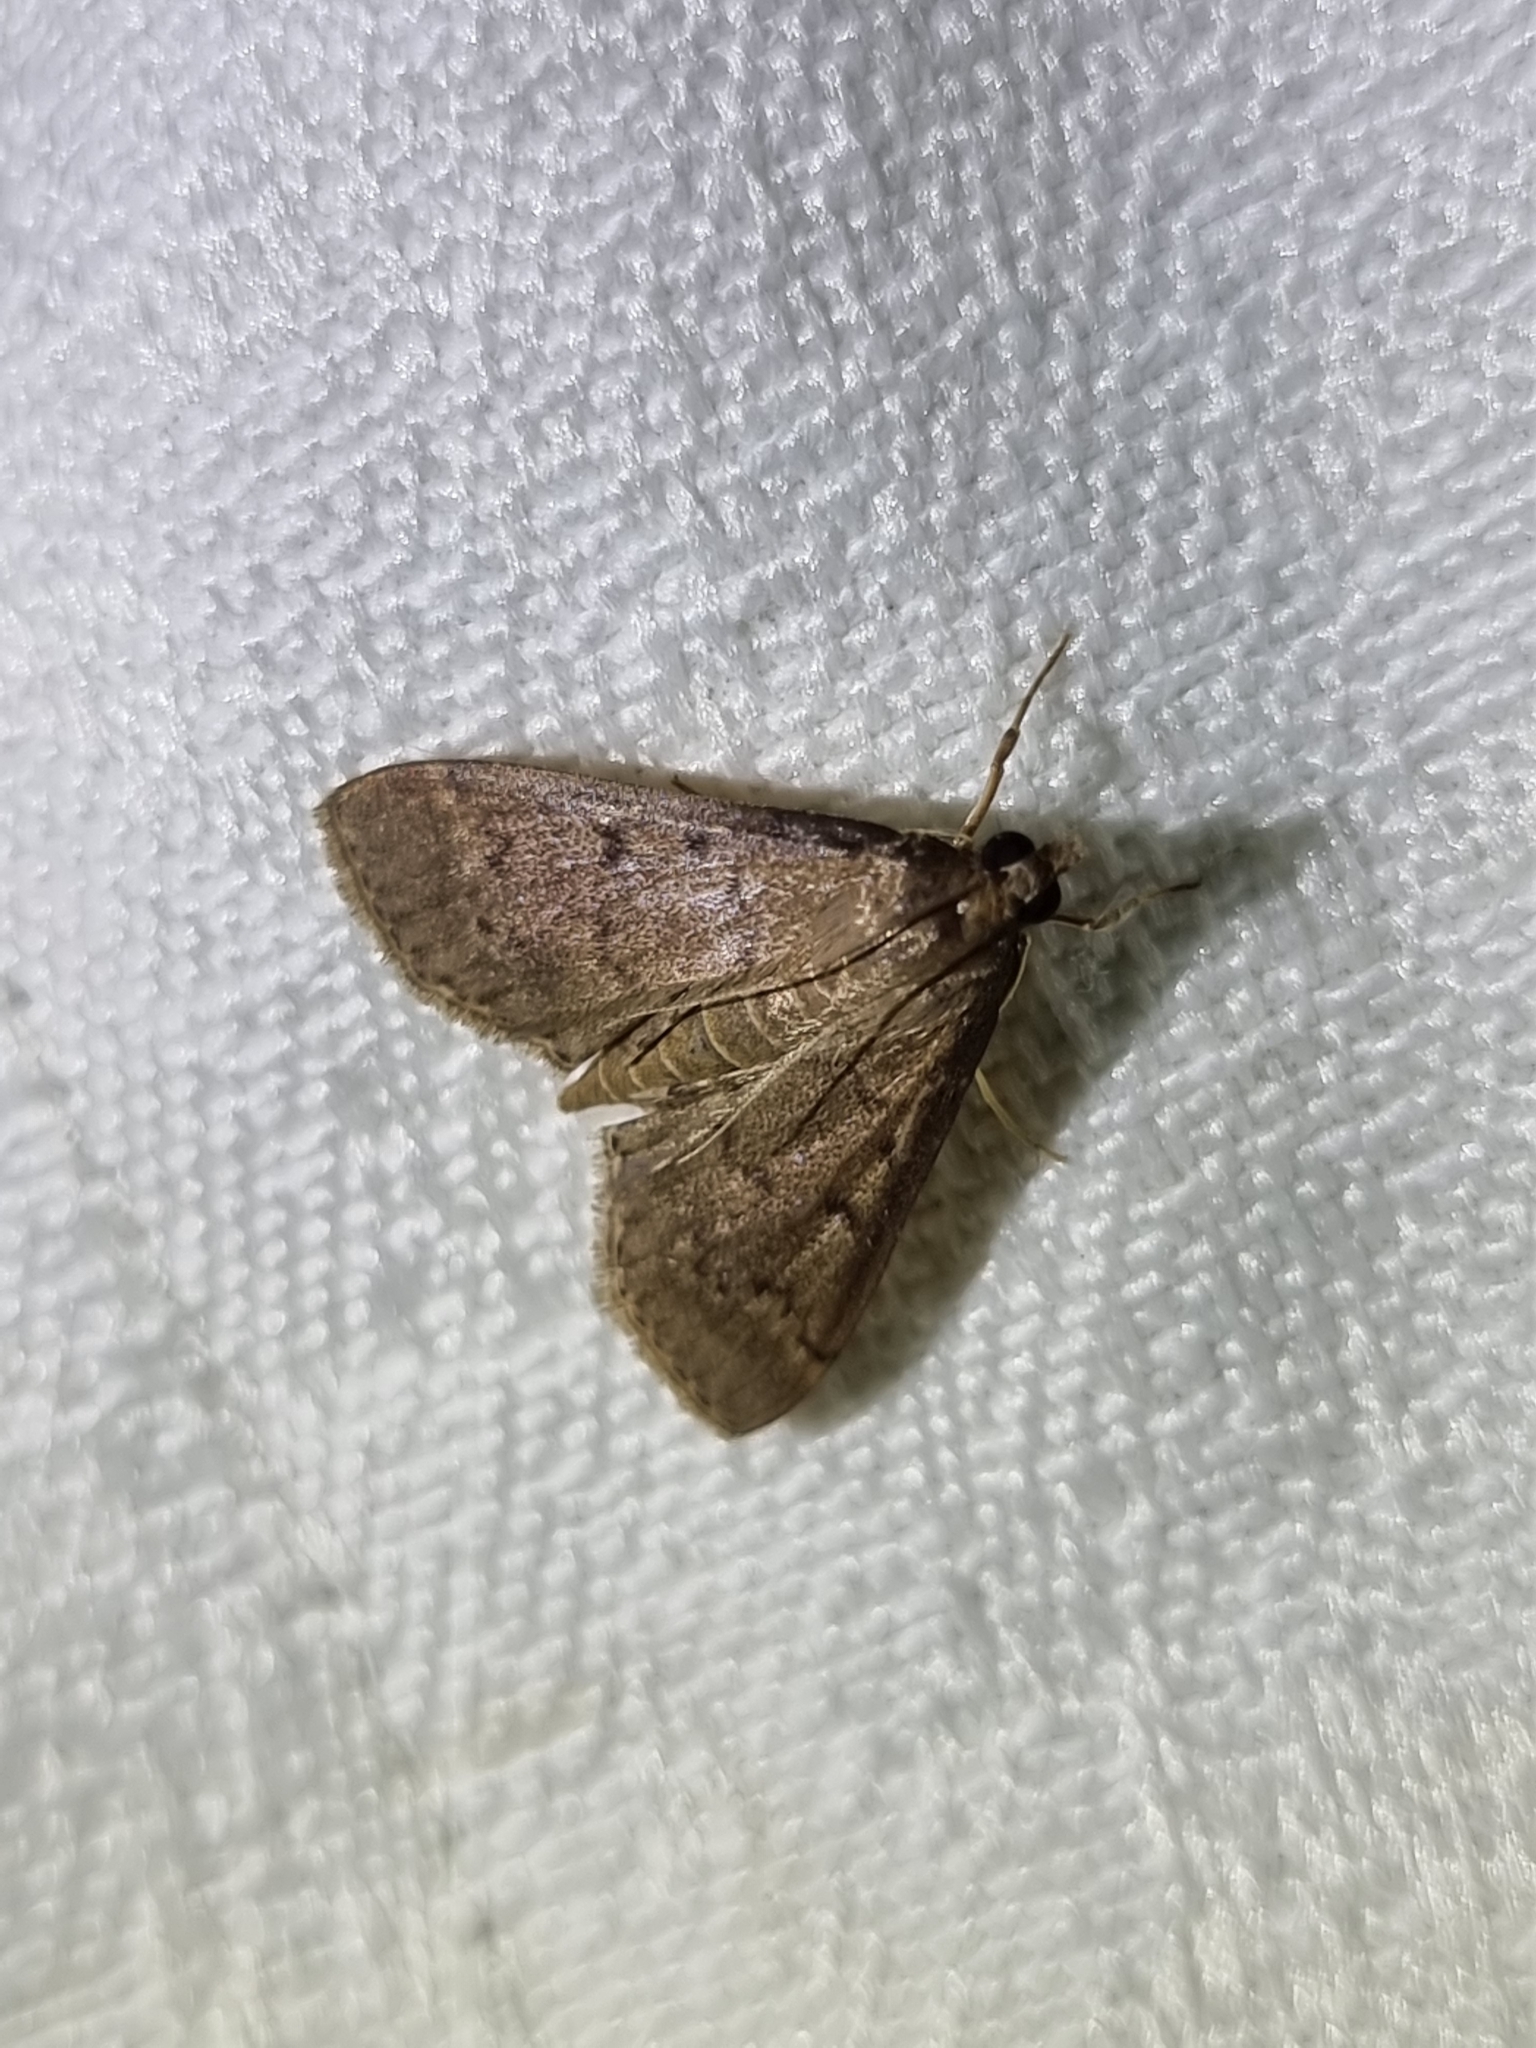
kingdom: Animalia
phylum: Arthropoda
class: Insecta
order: Lepidoptera
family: Crambidae
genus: Herpetogramma
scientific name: Herpetogramma licarsisalis
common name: Grass webworm
